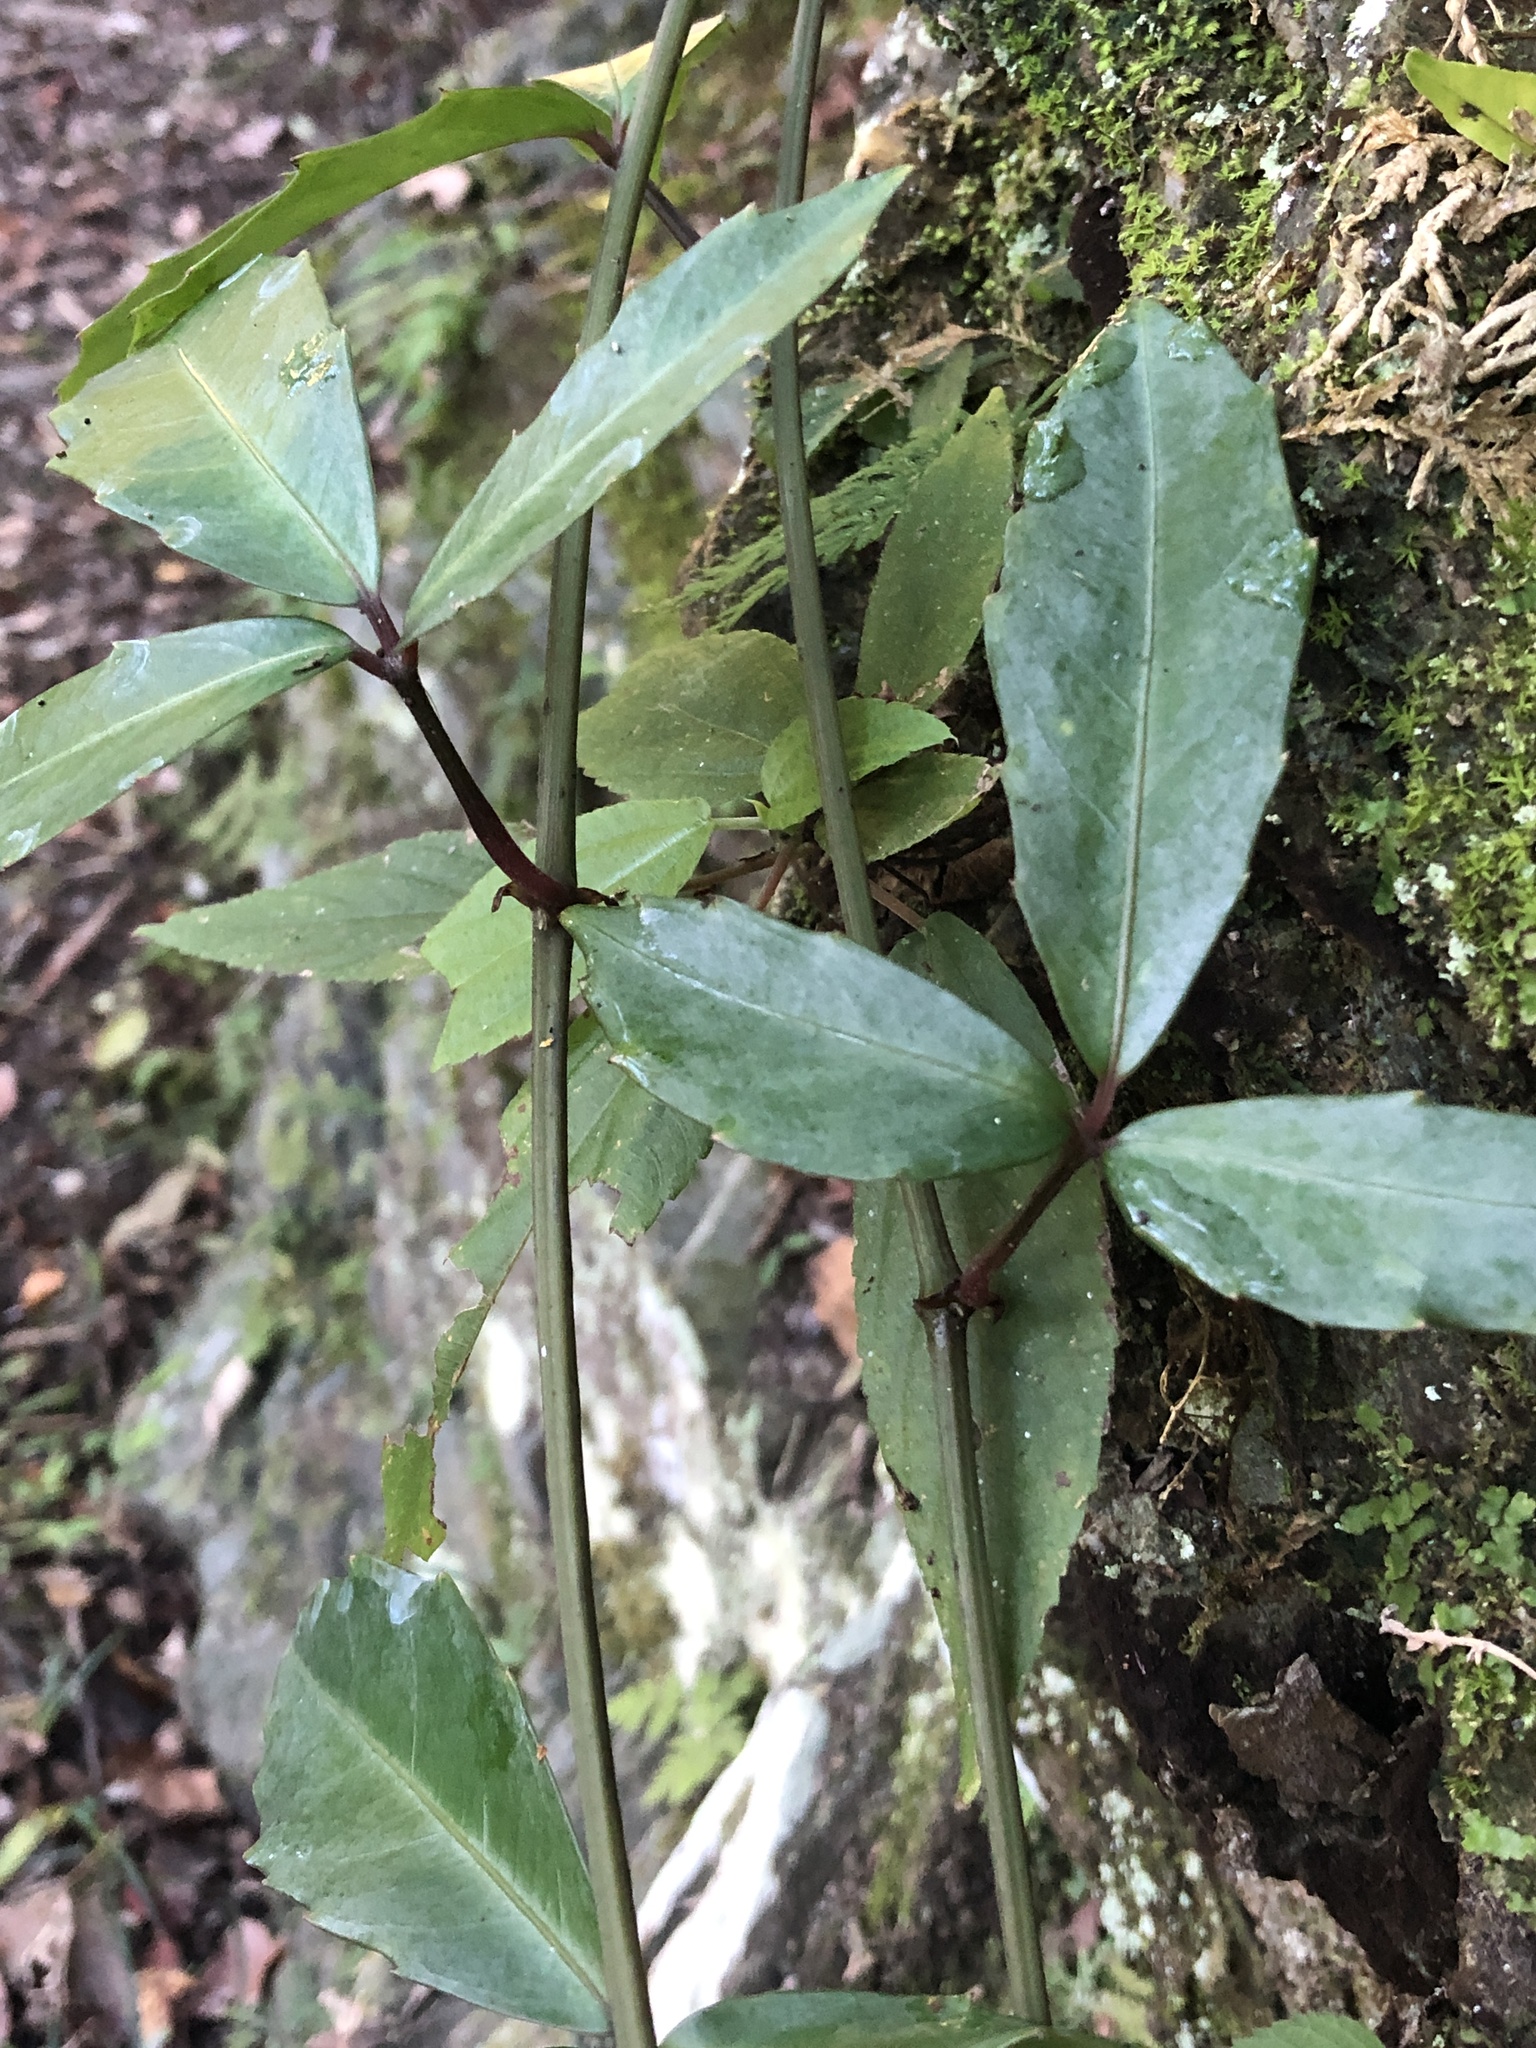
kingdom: Plantae
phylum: Tracheophyta
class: Magnoliopsida
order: Vitales
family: Vitaceae
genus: Tetrastigma
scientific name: Tetrastigma formosanum
